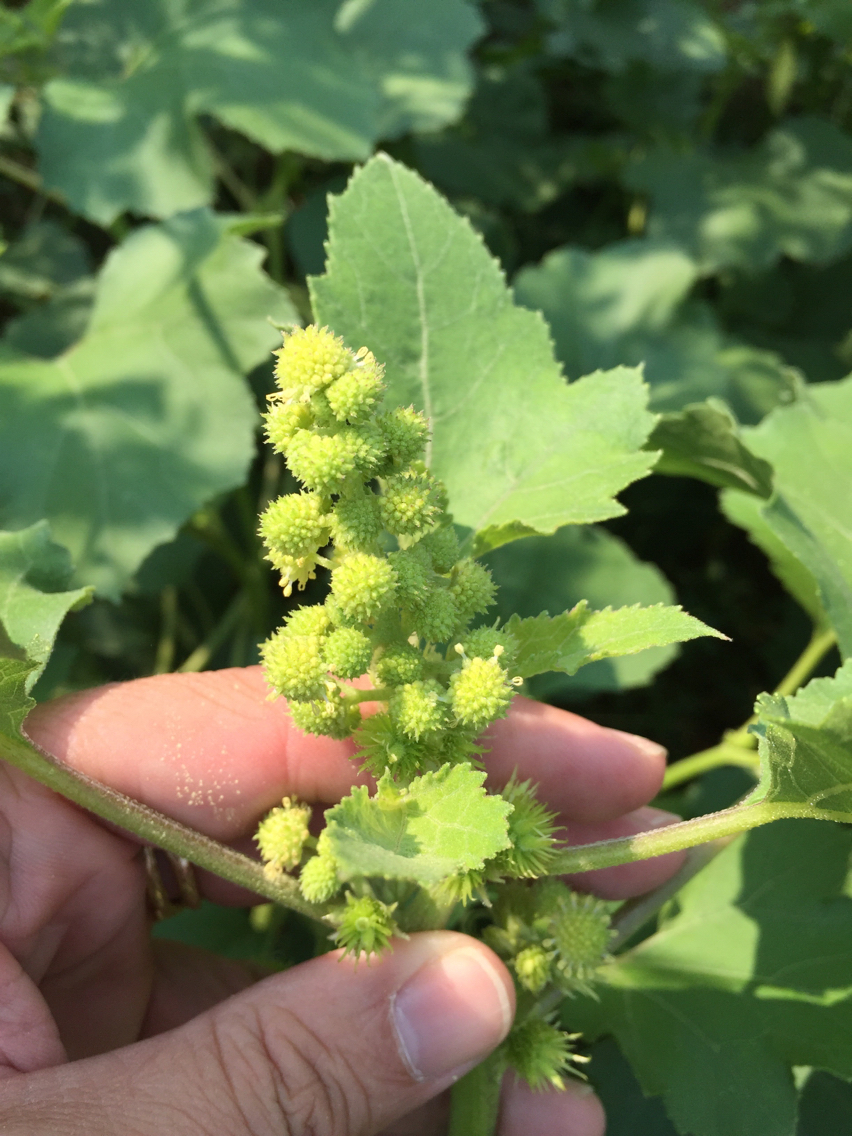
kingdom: Plantae
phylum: Tracheophyta
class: Magnoliopsida
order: Asterales
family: Asteraceae
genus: Xanthium
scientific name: Xanthium strumarium
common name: Rough cocklebur
